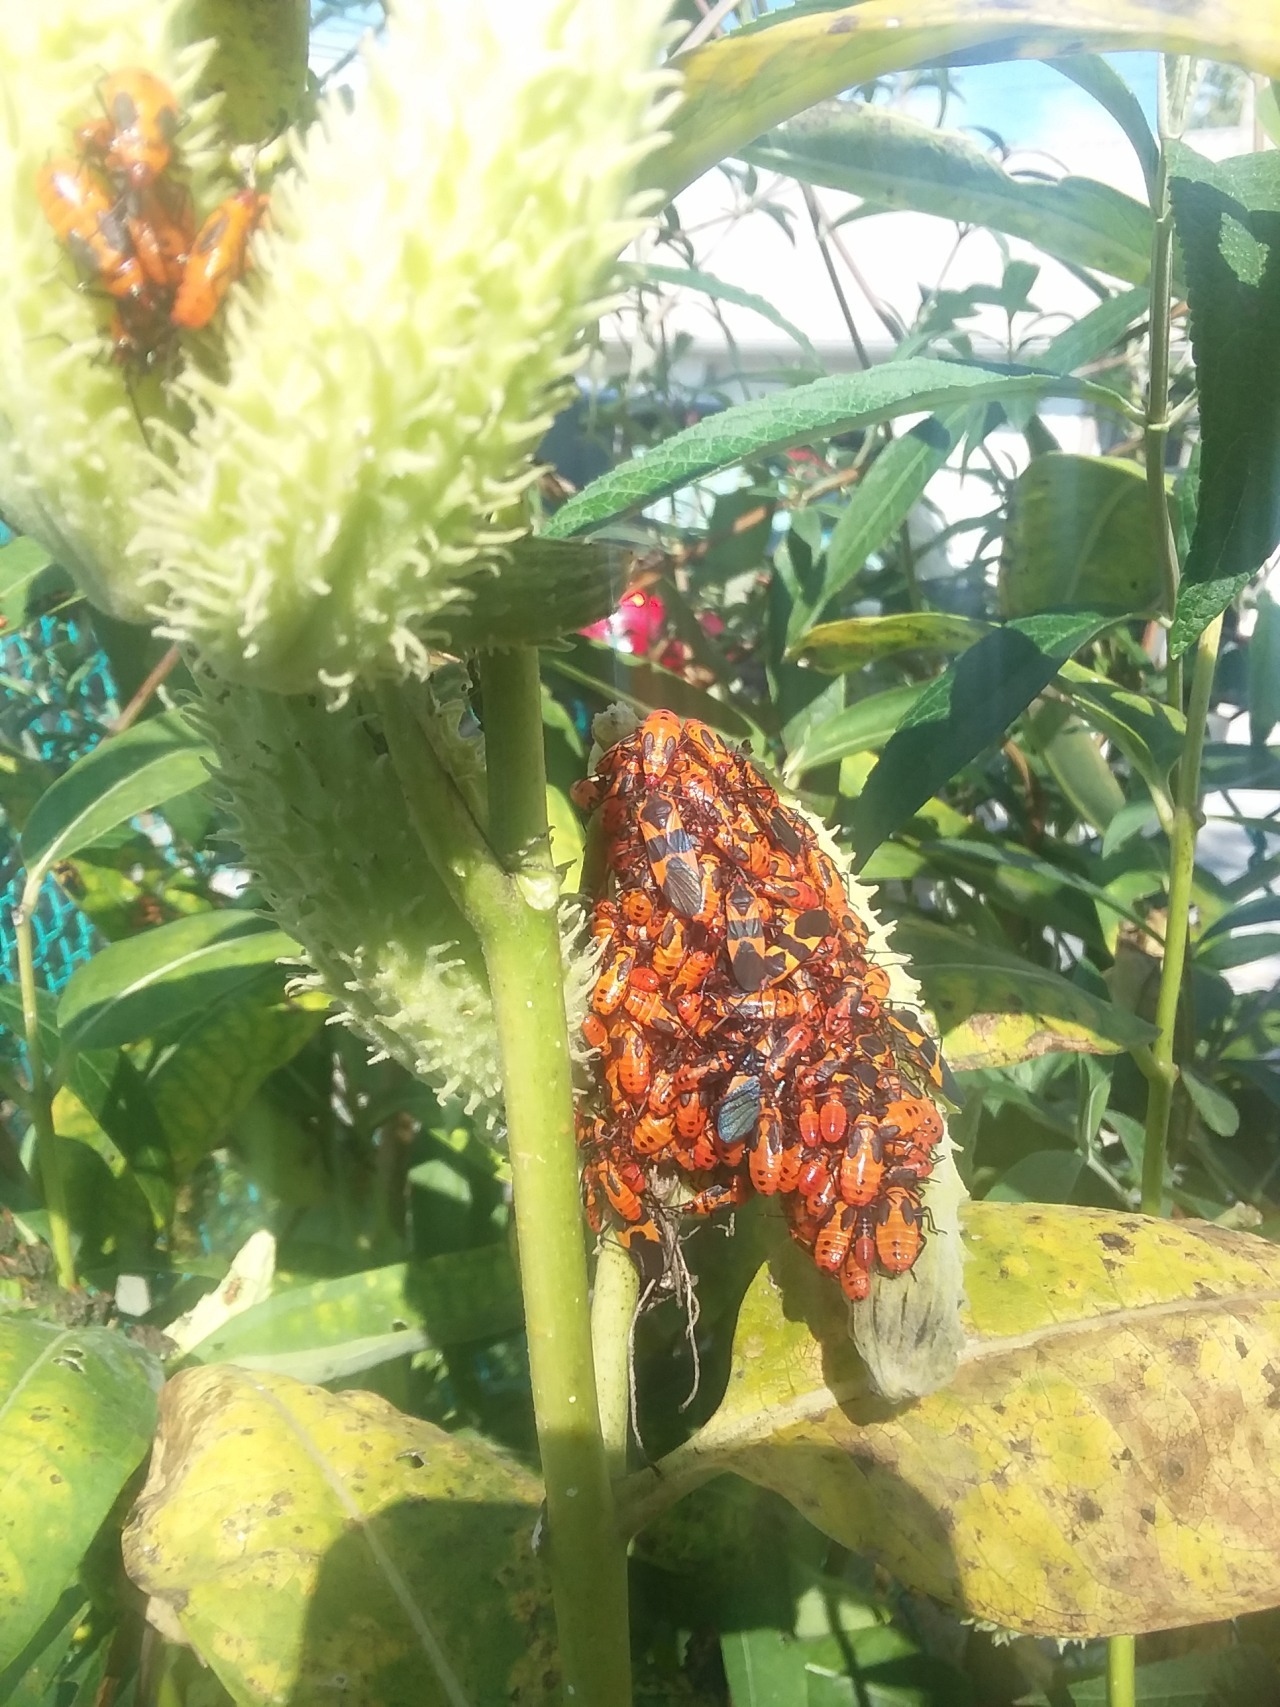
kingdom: Animalia
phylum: Arthropoda
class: Insecta
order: Hemiptera
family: Lygaeidae
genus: Oncopeltus
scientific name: Oncopeltus fasciatus
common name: Large milkweed bug
